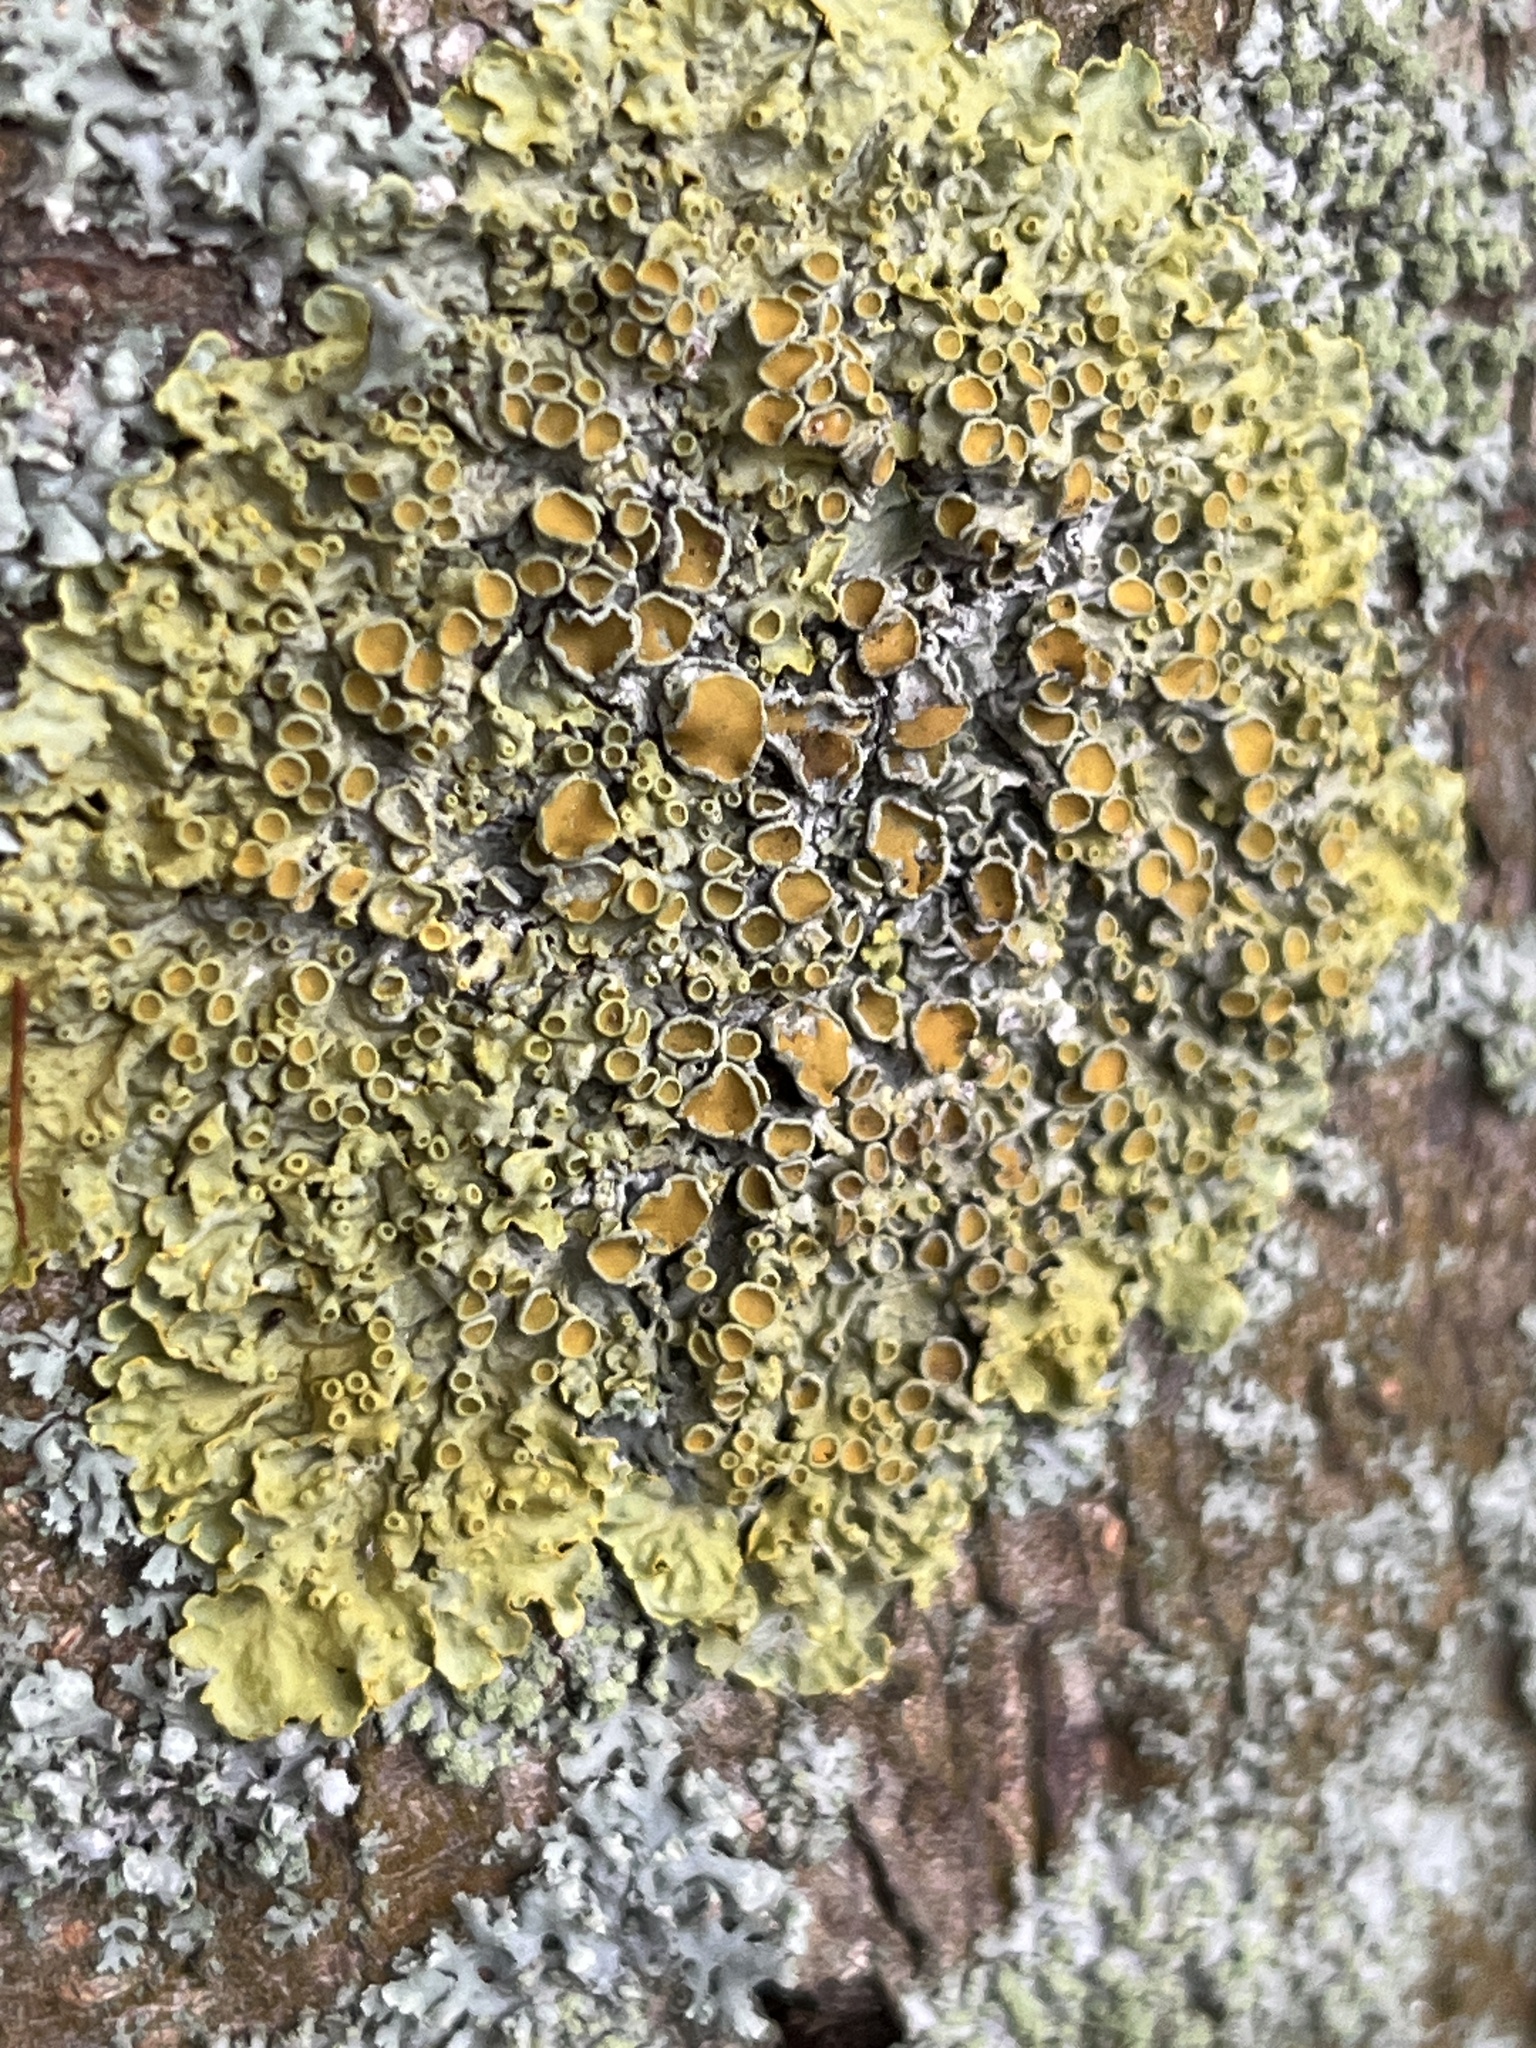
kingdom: Fungi
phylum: Ascomycota
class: Lecanoromycetes
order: Teloschistales
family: Teloschistaceae
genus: Xanthoria
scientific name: Xanthoria parietina
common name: Common orange lichen
